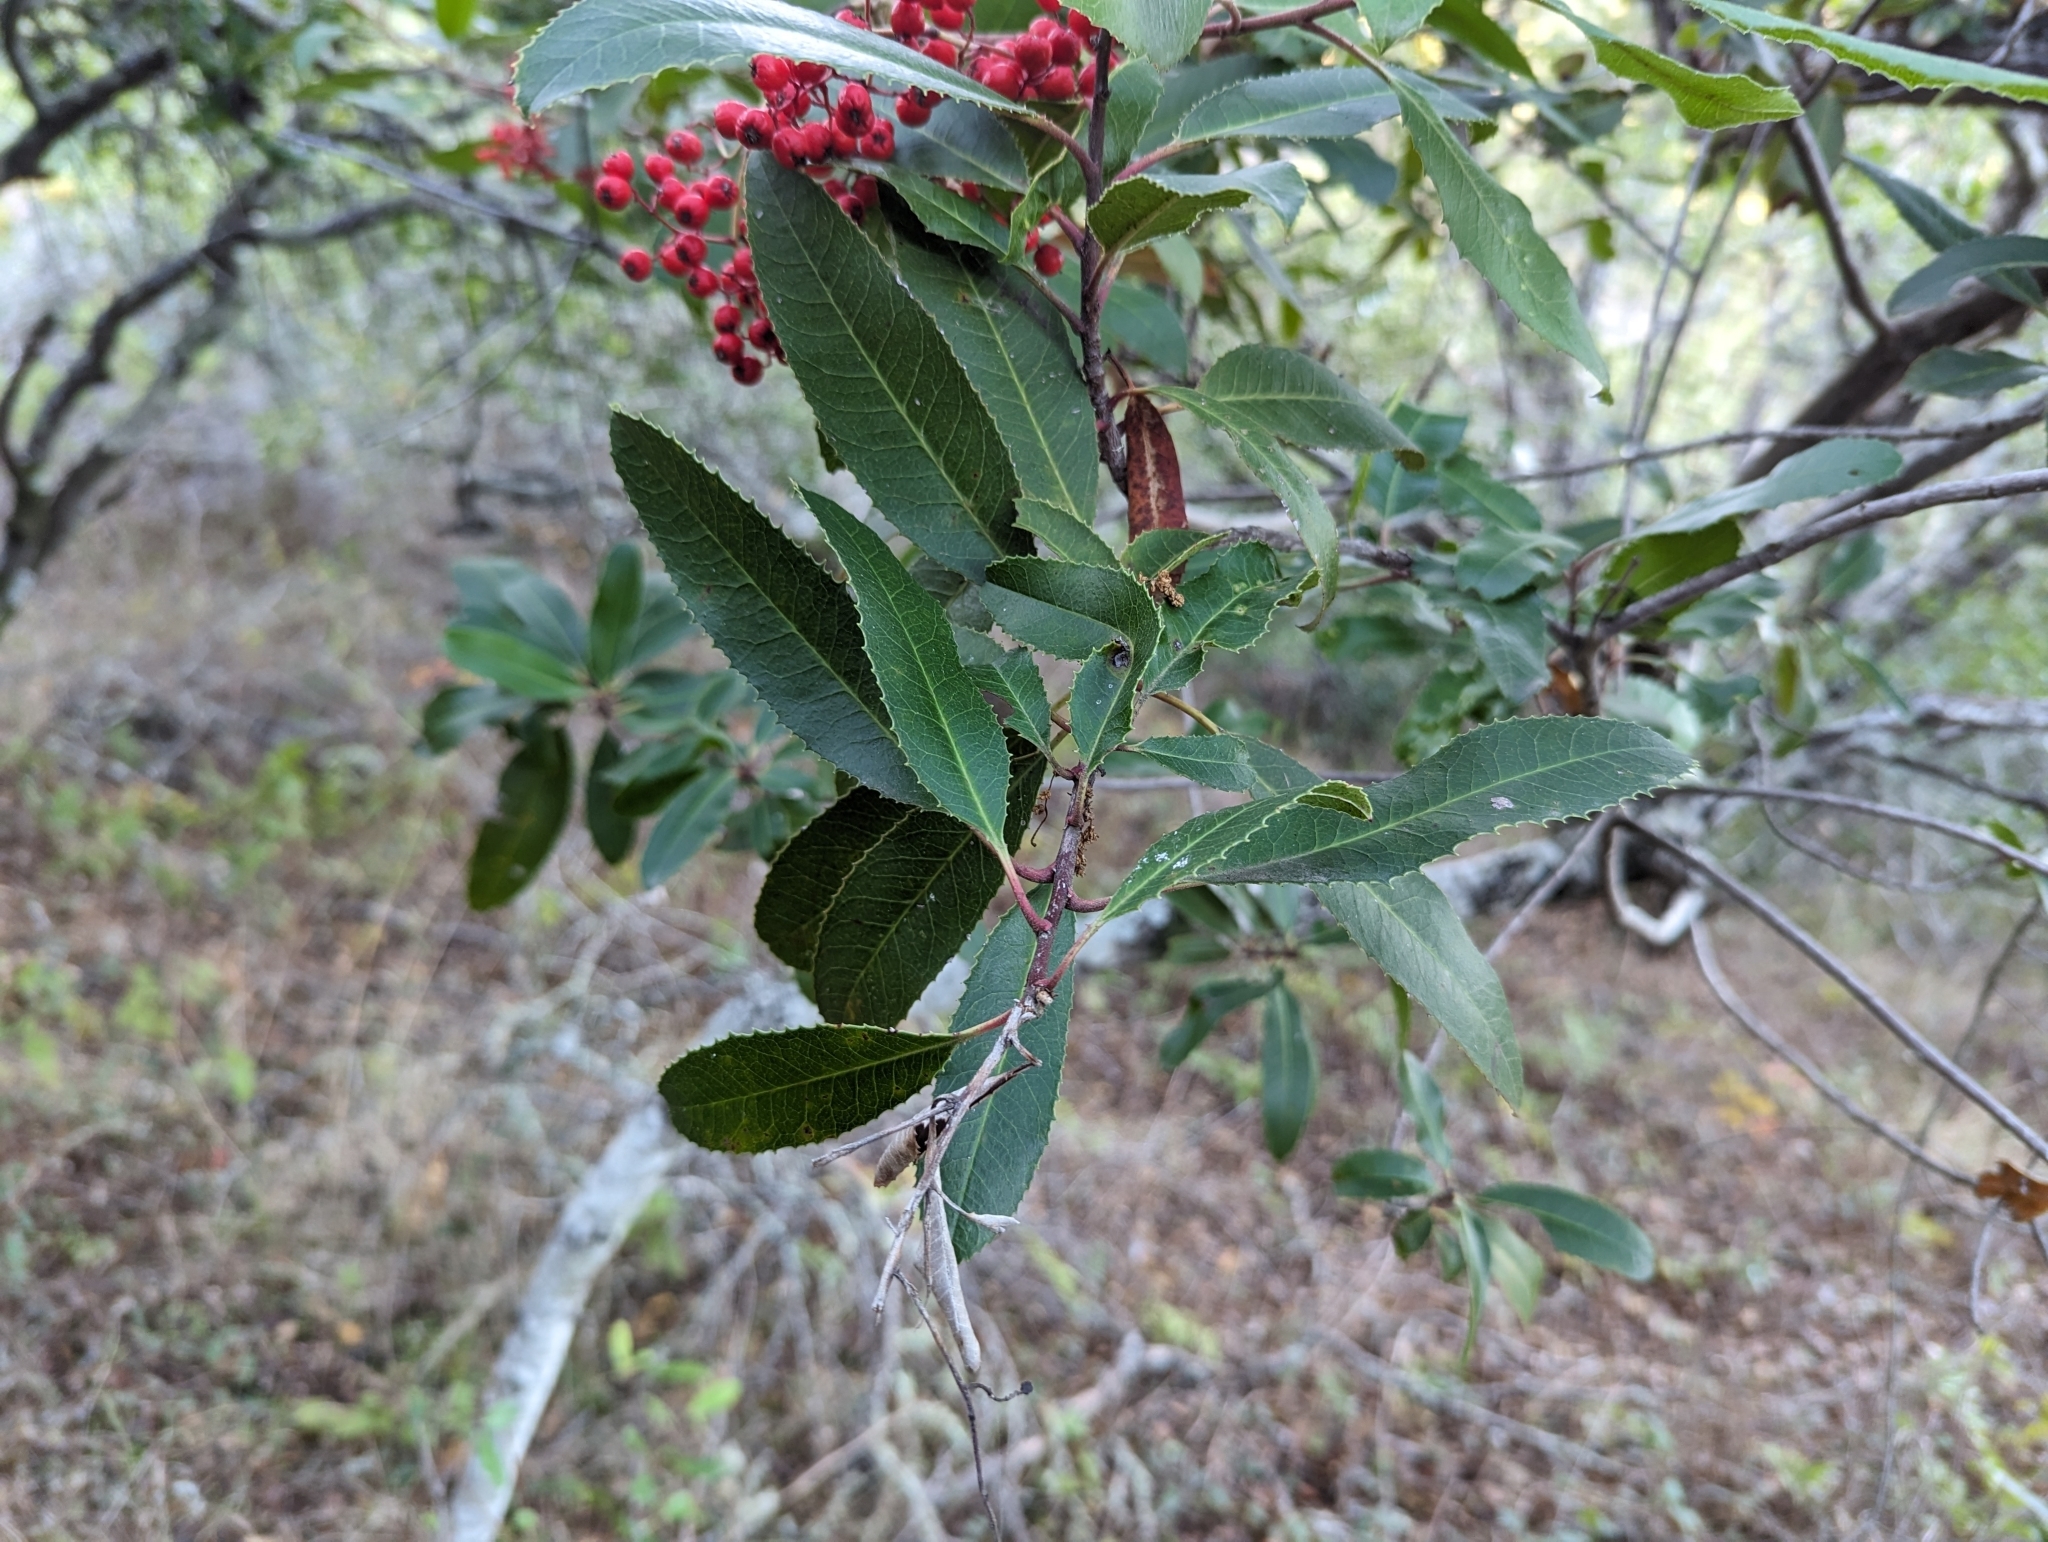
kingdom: Plantae
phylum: Tracheophyta
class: Magnoliopsida
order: Rosales
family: Rosaceae
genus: Heteromeles
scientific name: Heteromeles arbutifolia
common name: California-holly
